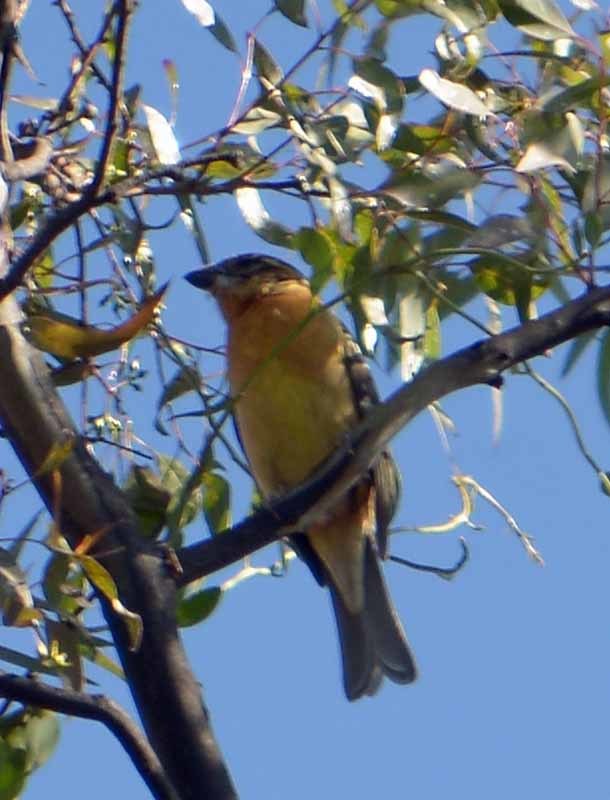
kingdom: Animalia
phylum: Chordata
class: Aves
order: Passeriformes
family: Cardinalidae
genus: Pheucticus
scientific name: Pheucticus melanocephalus
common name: Black-headed grosbeak
